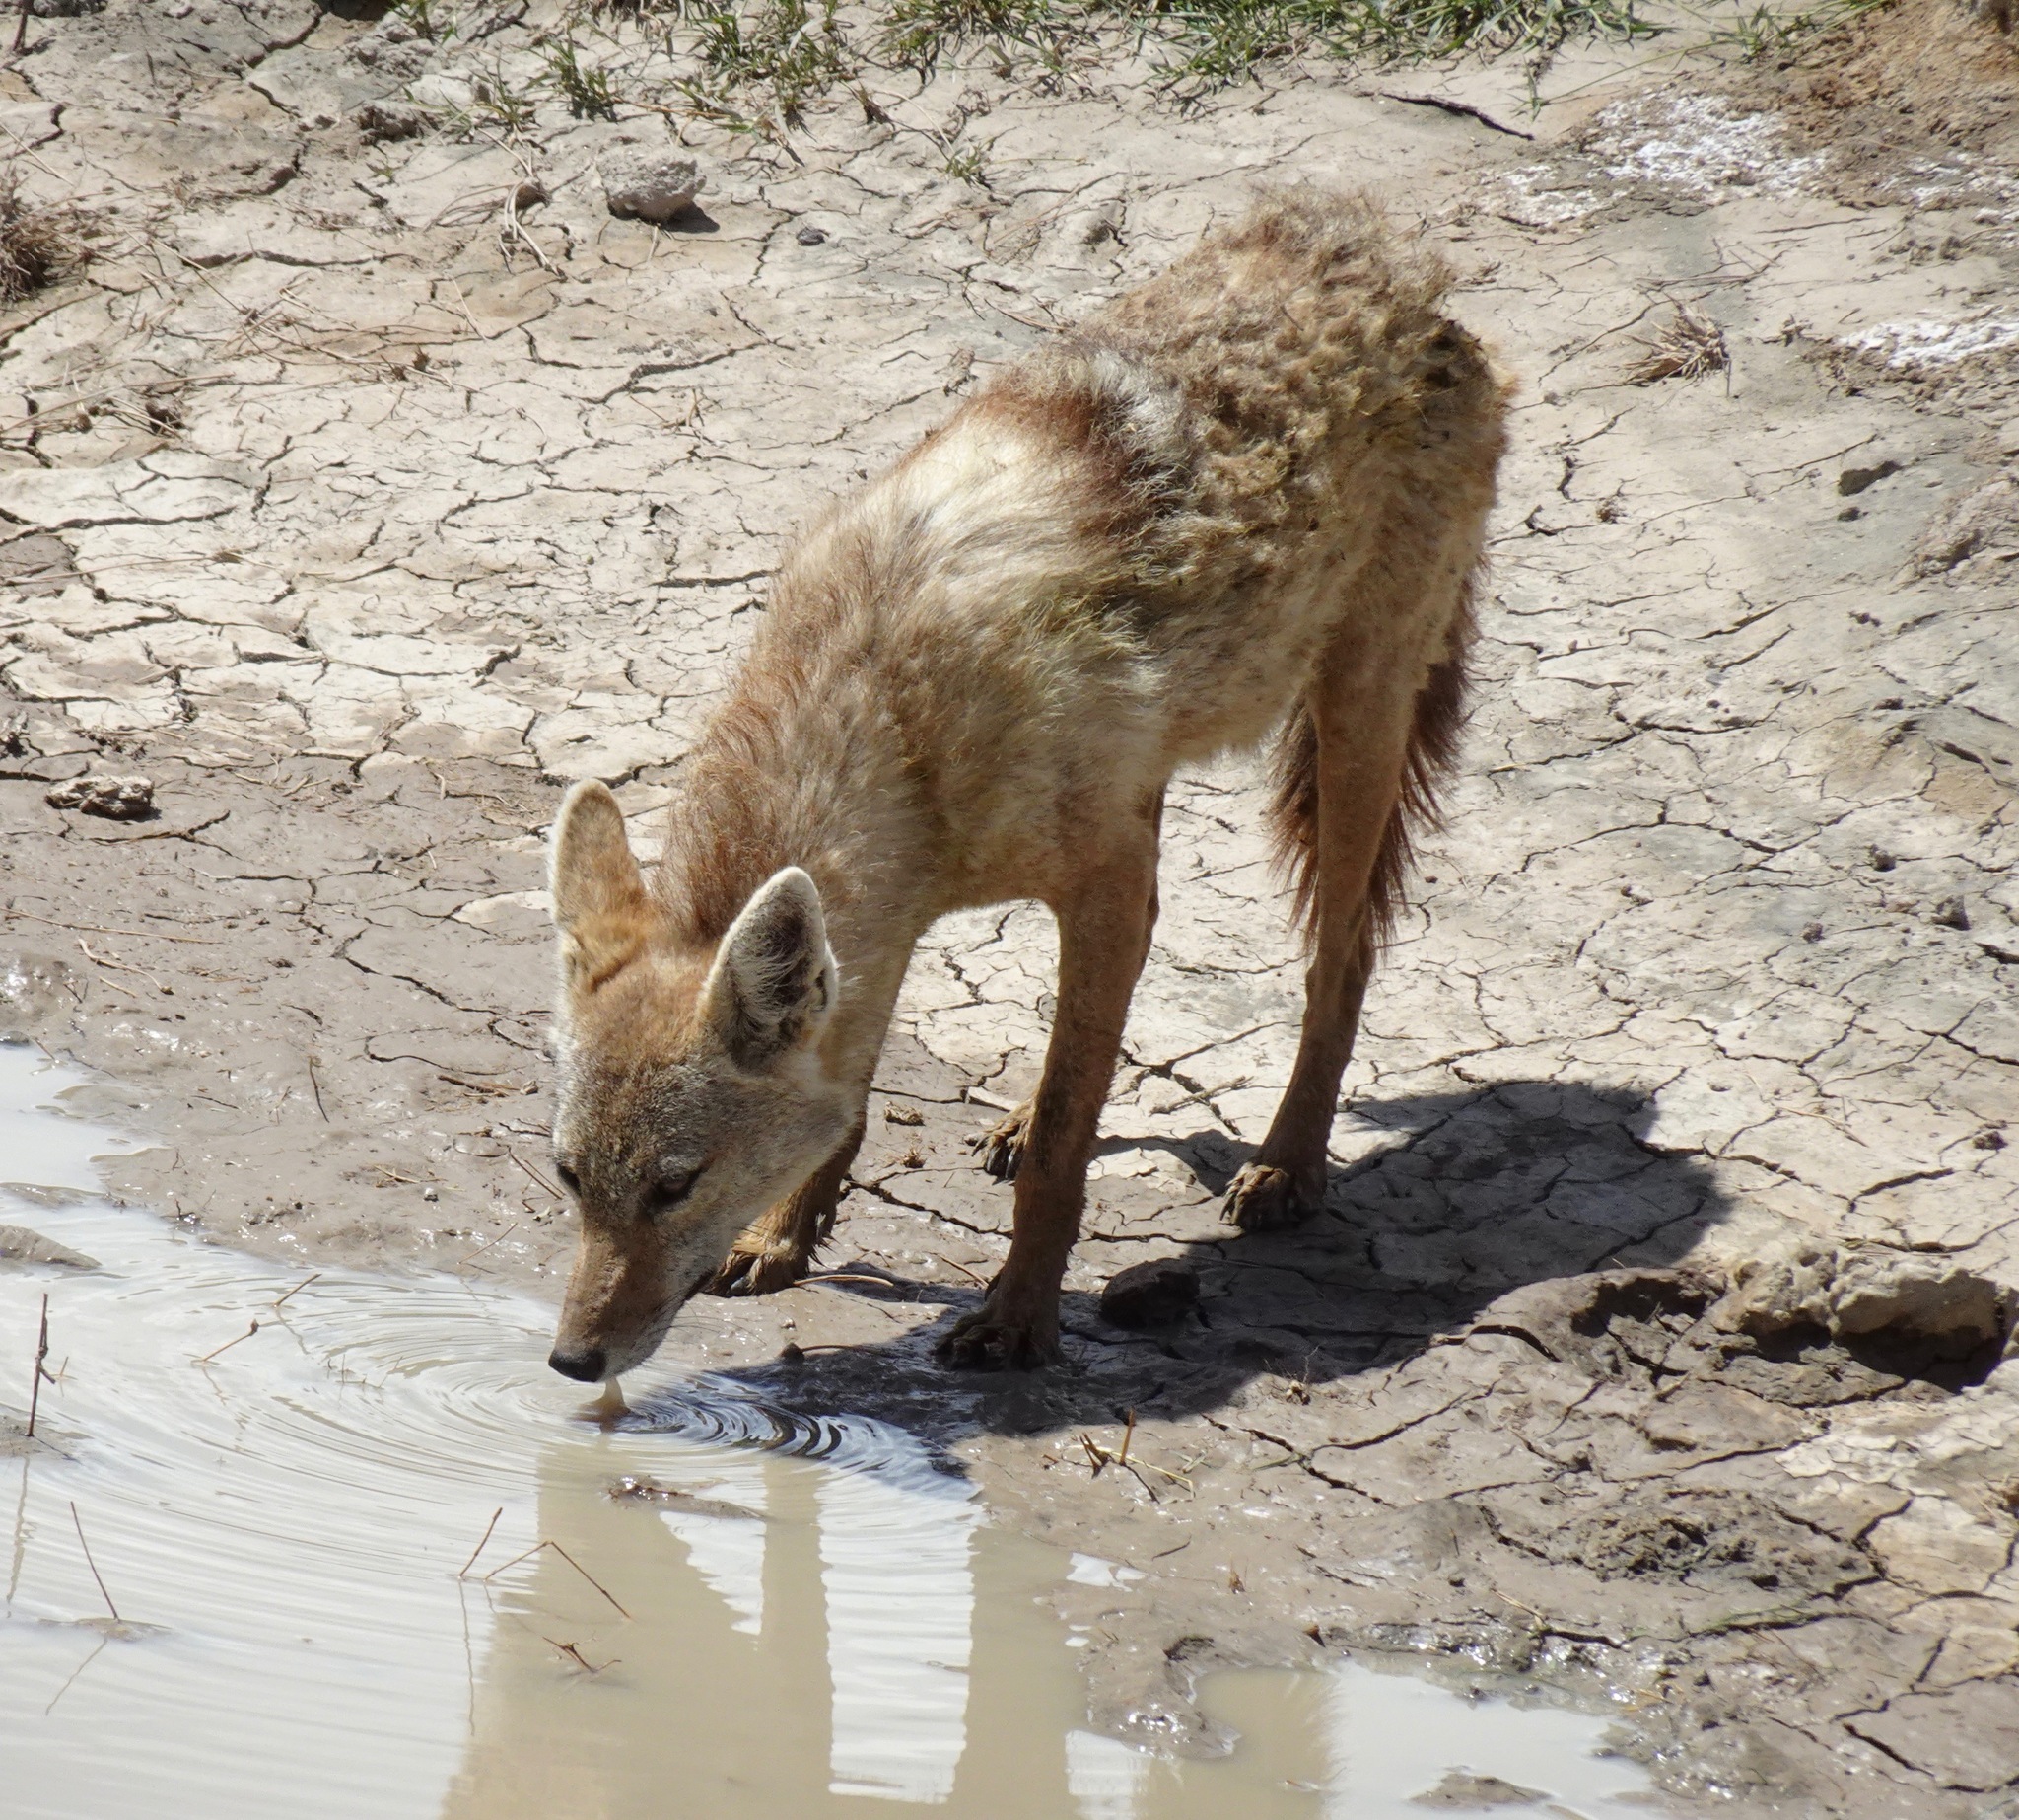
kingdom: Animalia
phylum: Chordata
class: Mammalia
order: Carnivora
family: Canidae
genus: Canis
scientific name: Canis lupaster
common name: African golden wolf
